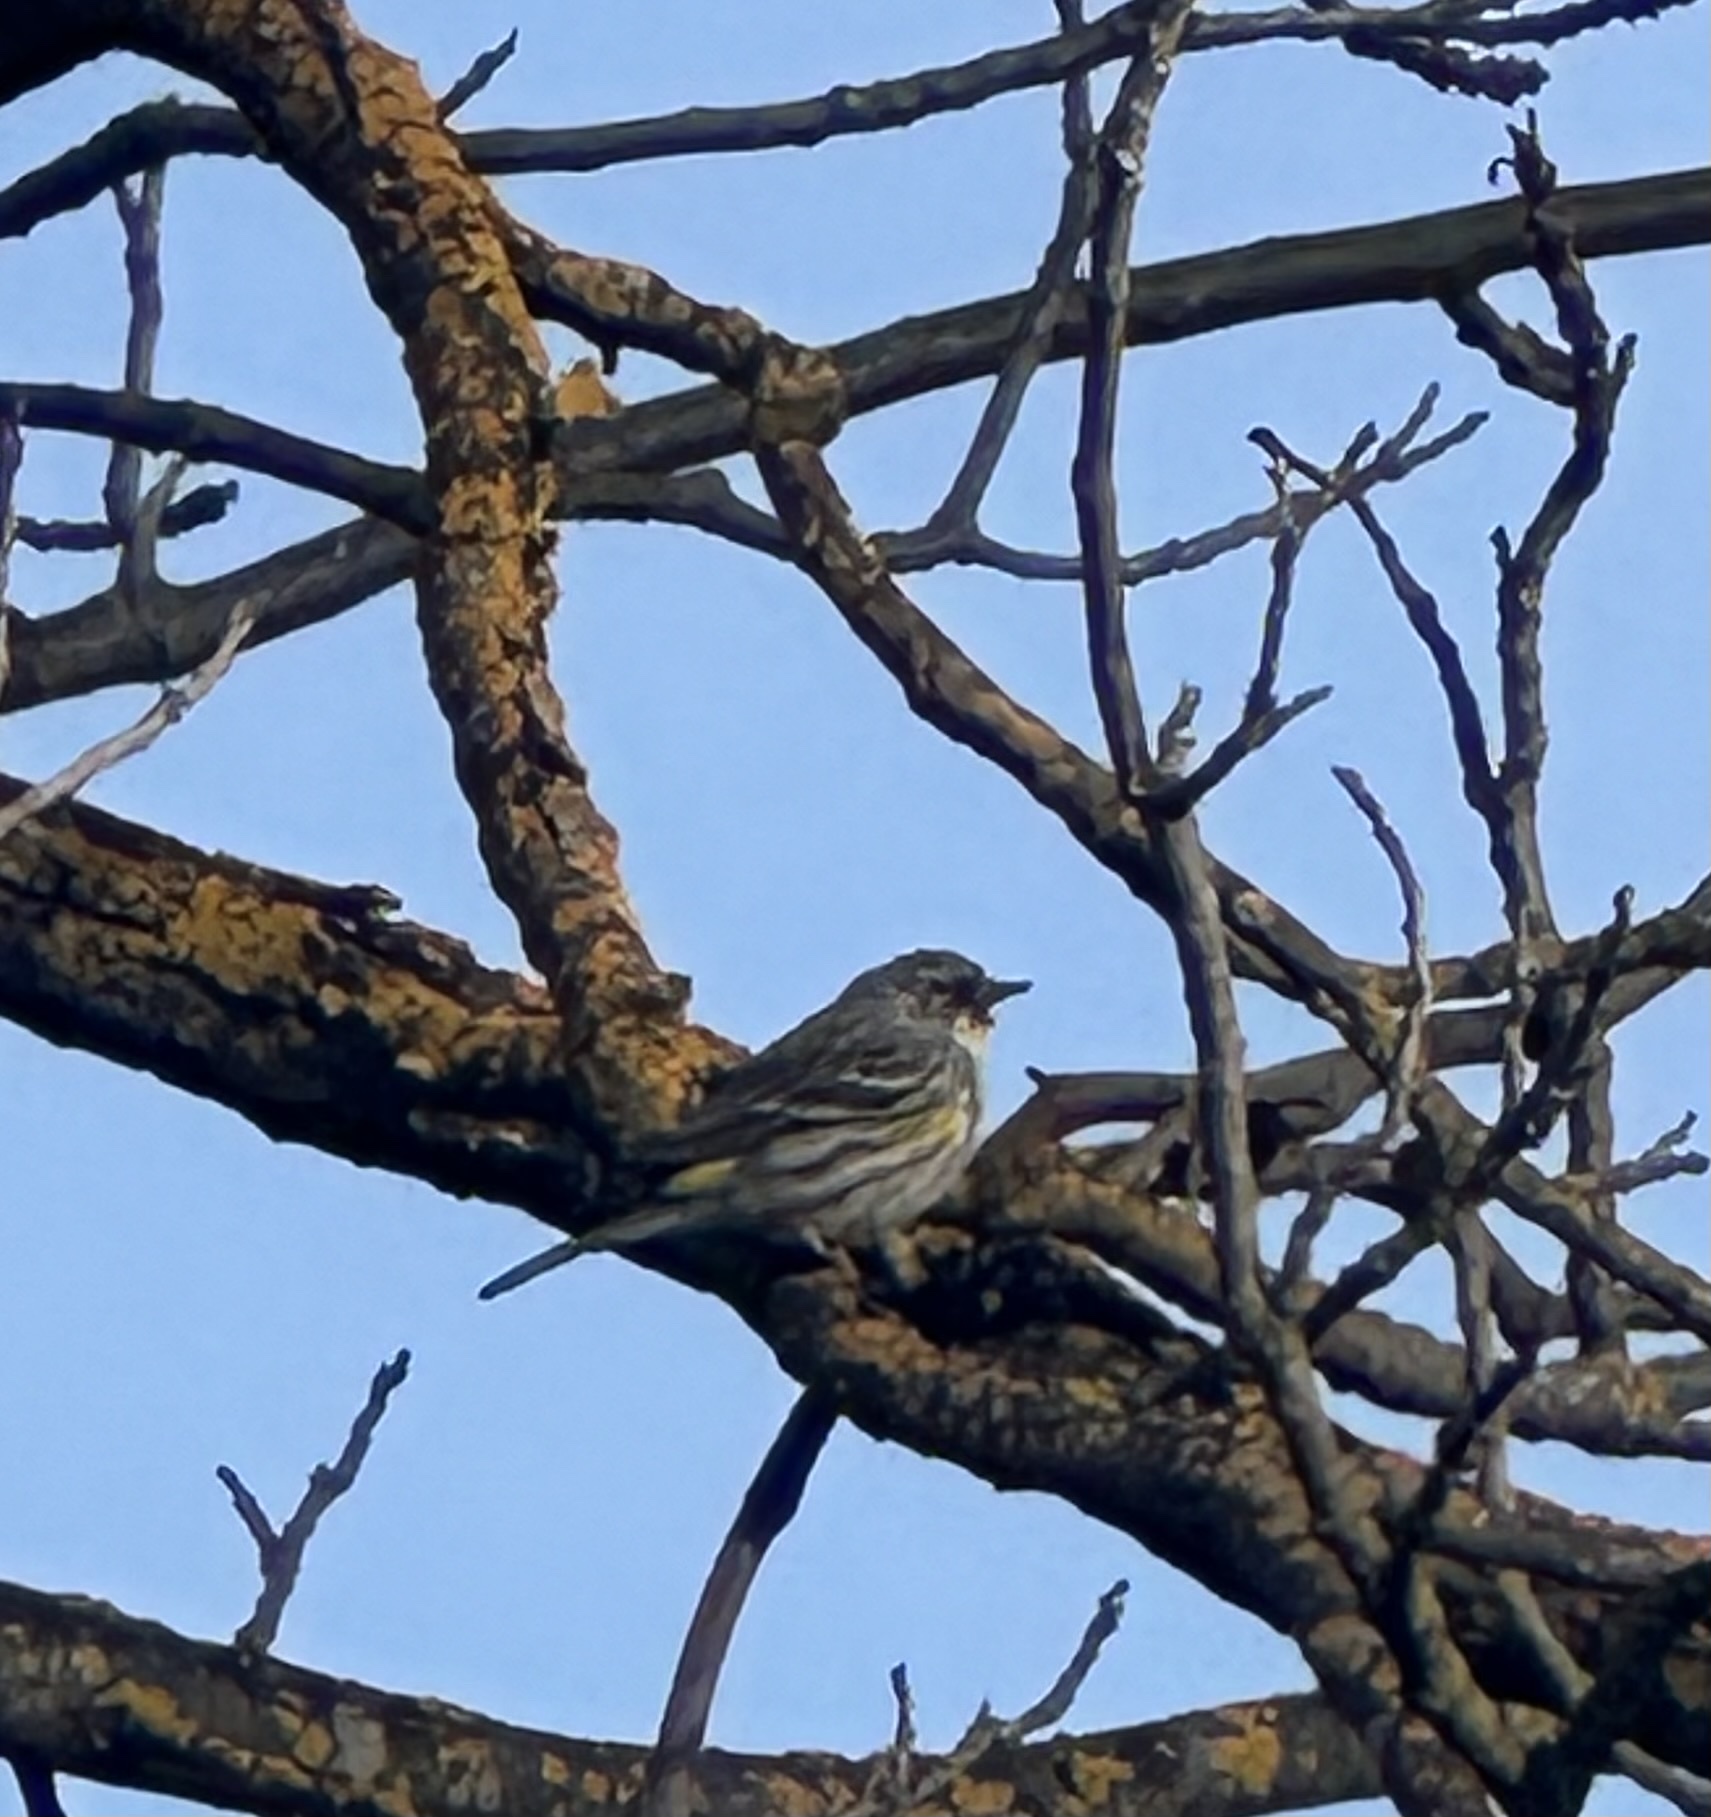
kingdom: Animalia
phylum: Chordata
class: Aves
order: Passeriformes
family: Parulidae
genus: Setophaga
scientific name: Setophaga coronata
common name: Myrtle warbler
